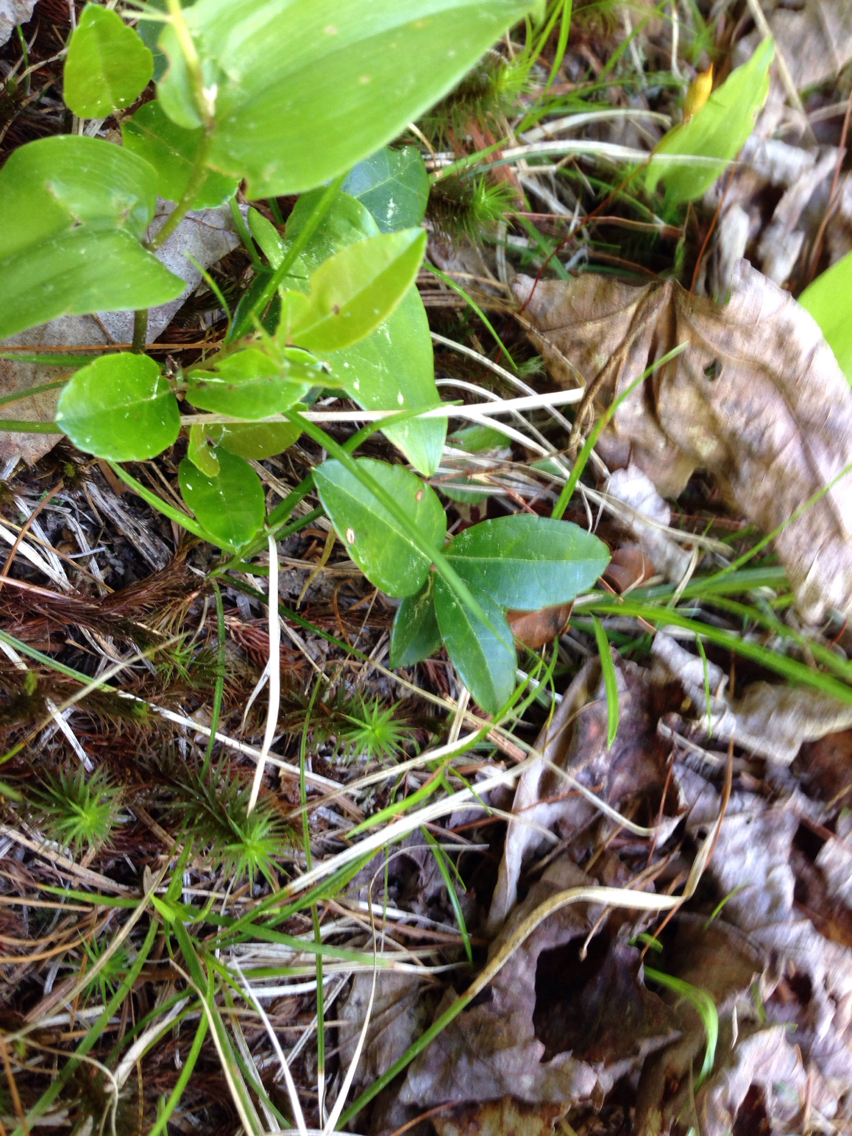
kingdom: Plantae
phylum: Tracheophyta
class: Magnoliopsida
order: Ericales
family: Ericaceae
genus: Gaultheria
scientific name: Gaultheria procumbens
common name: Checkerberry
